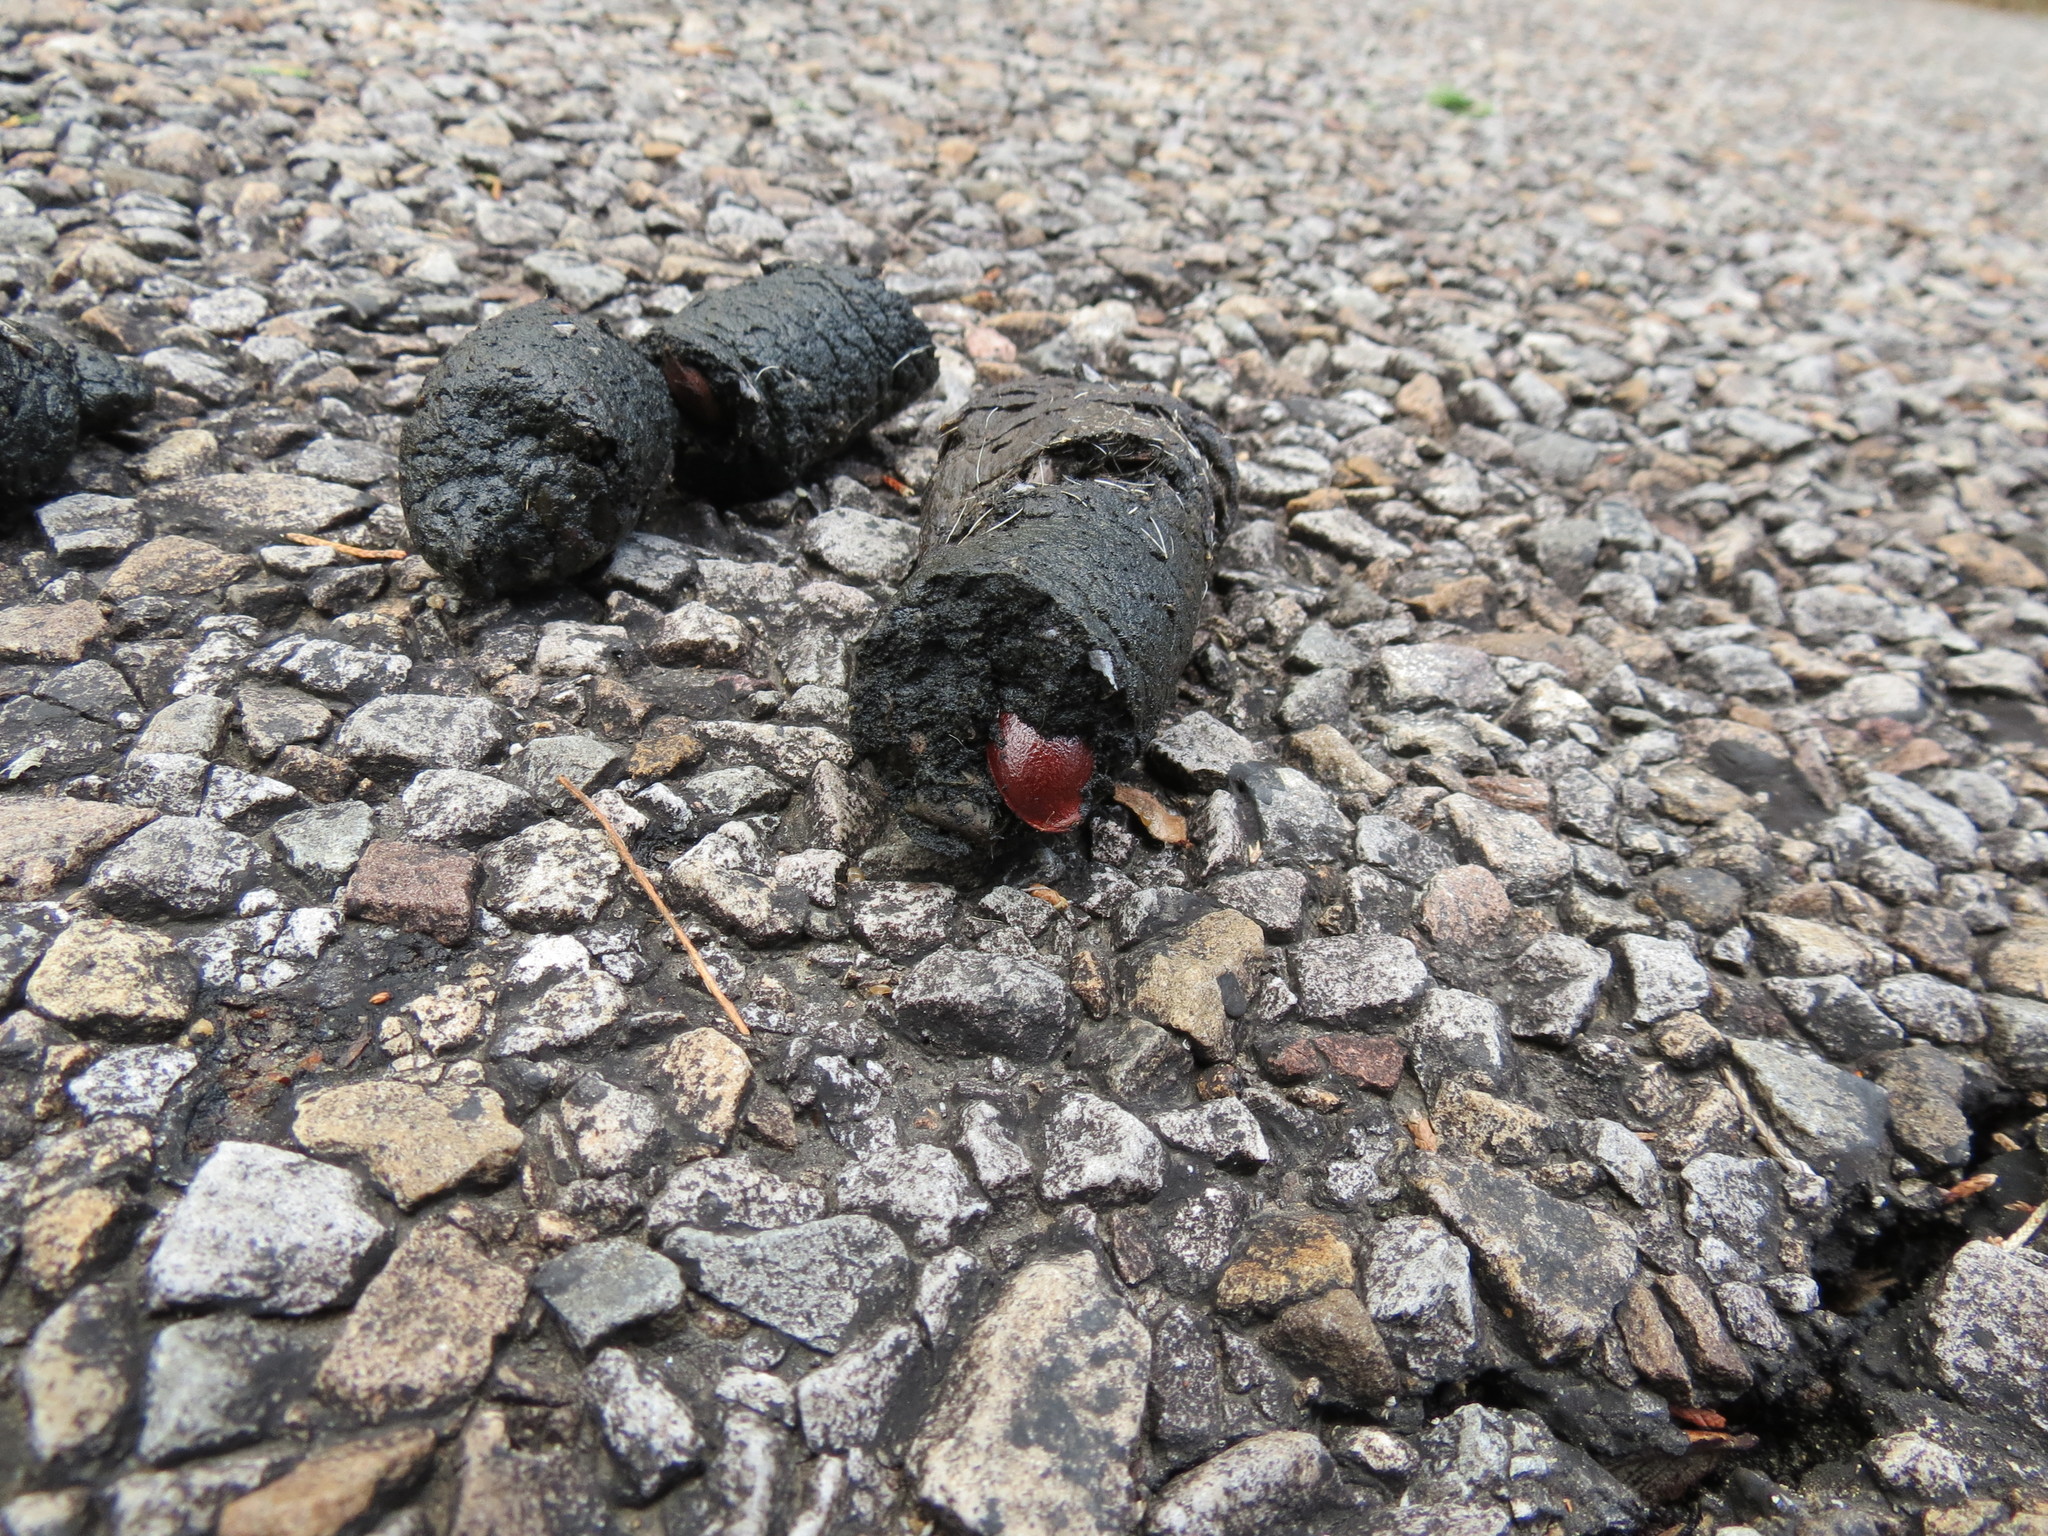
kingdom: Animalia
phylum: Chordata
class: Mammalia
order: Carnivora
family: Canidae
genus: Canis
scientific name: Canis latrans
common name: Coyote
